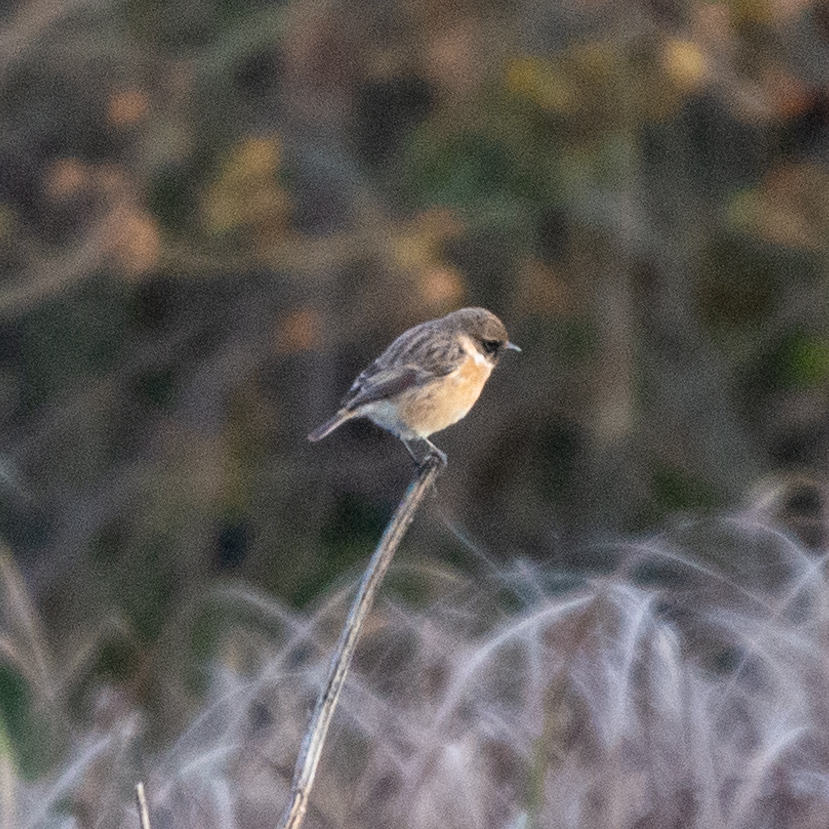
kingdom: Animalia
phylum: Chordata
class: Aves
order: Passeriformes
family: Muscicapidae
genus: Saxicola
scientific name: Saxicola rubicola
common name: European stonechat
